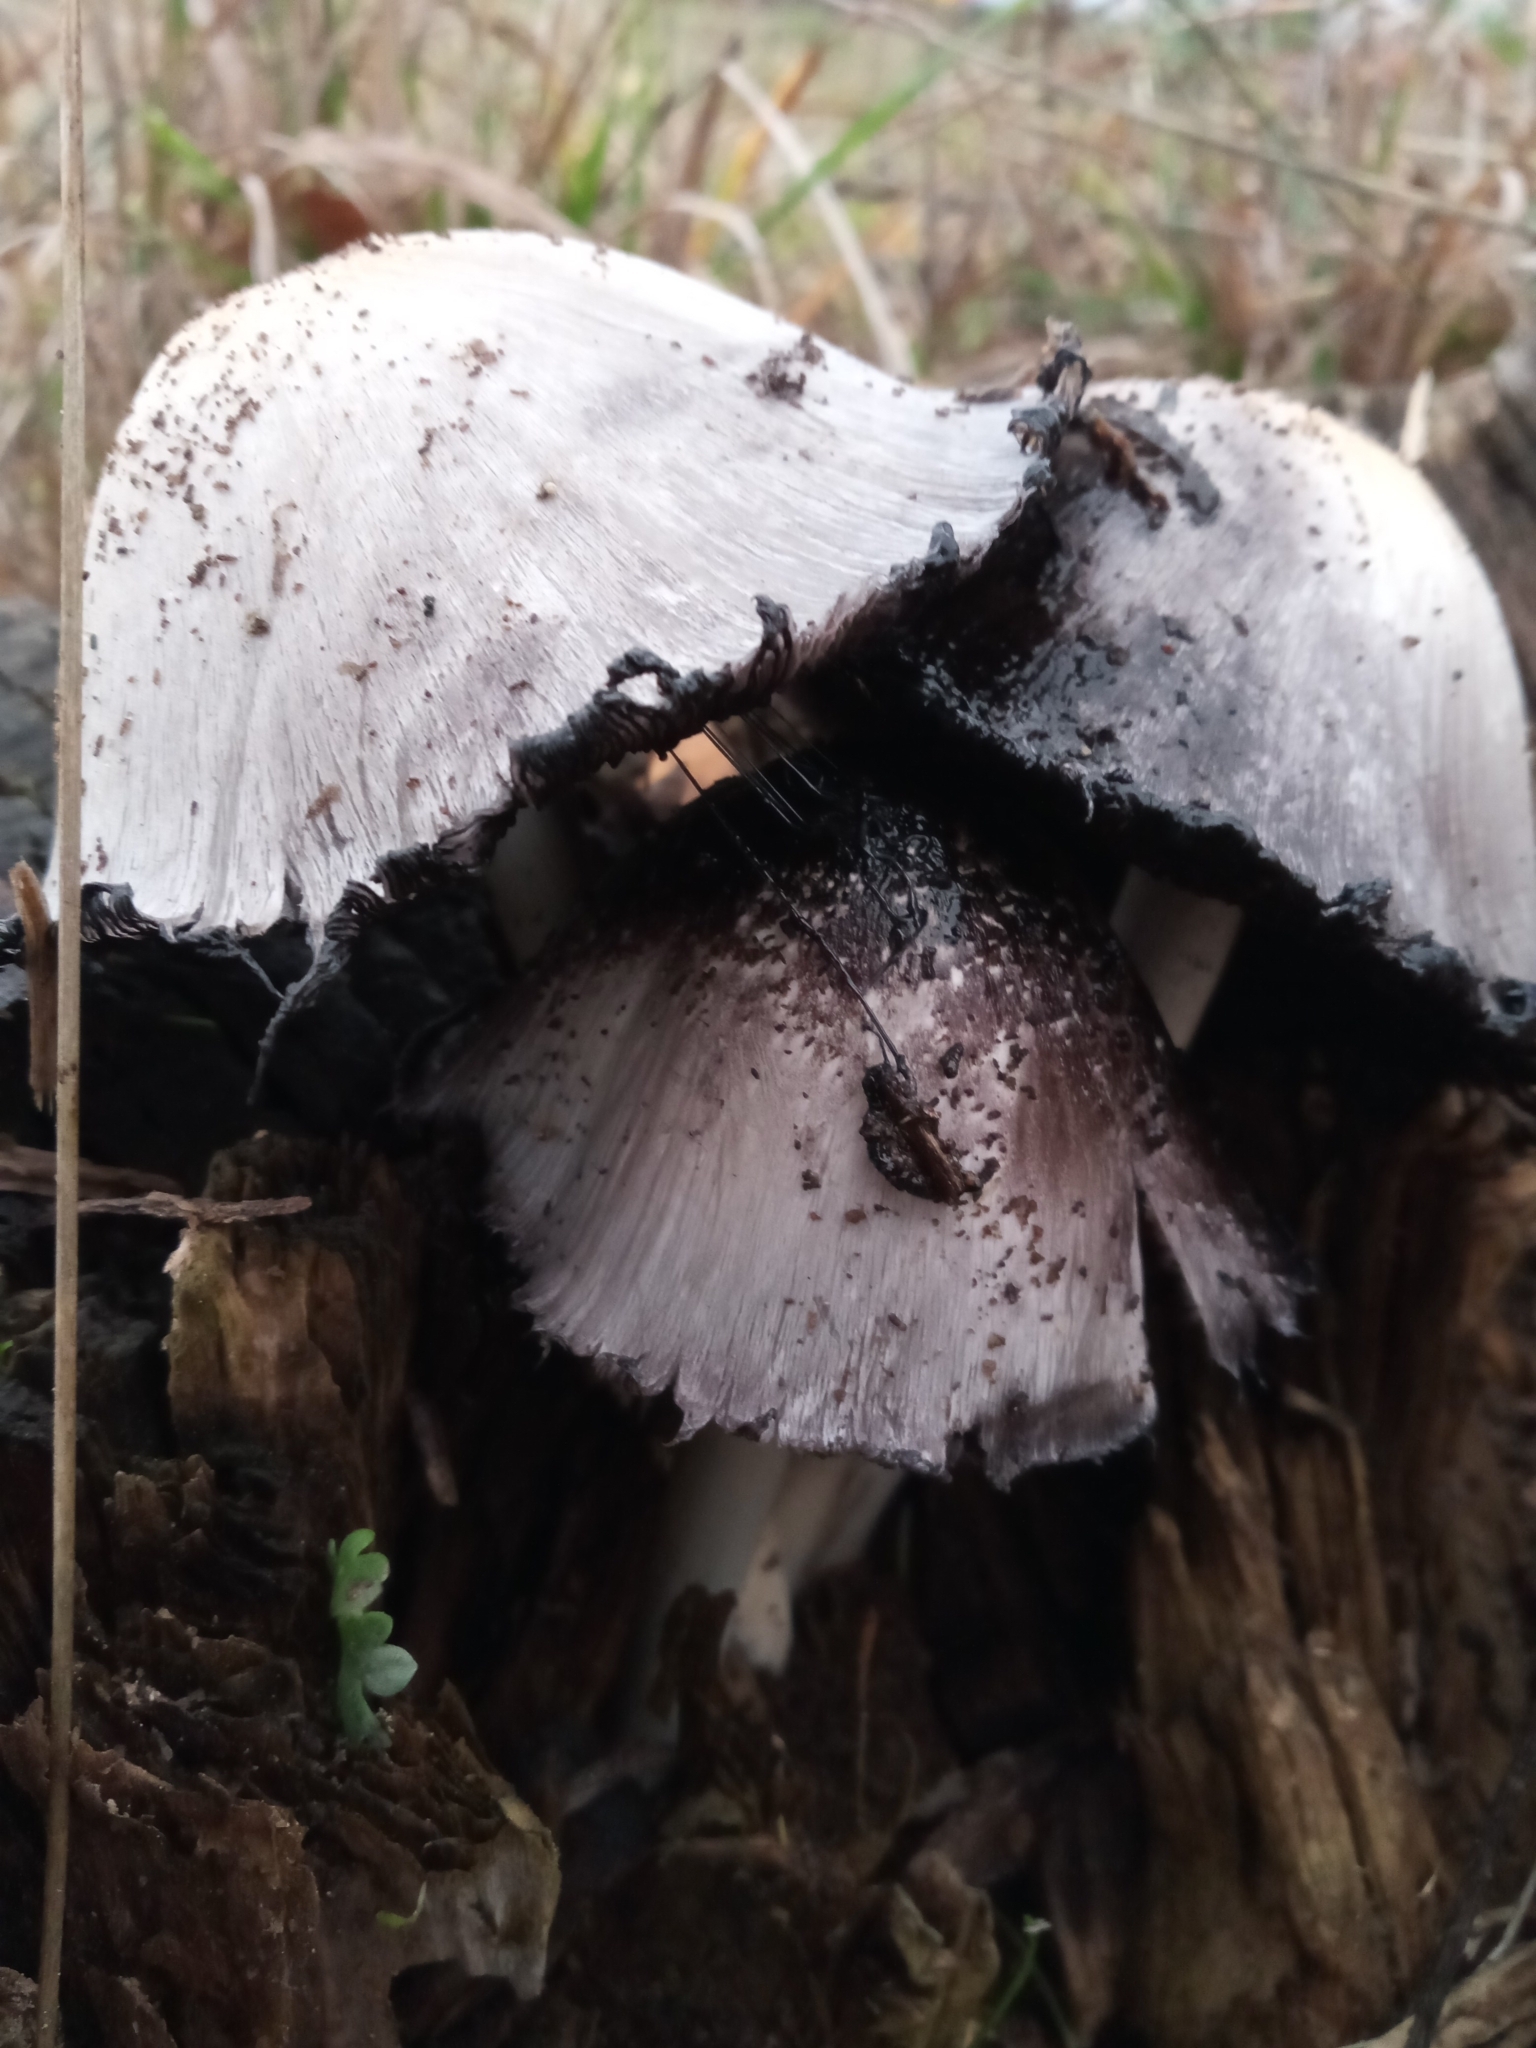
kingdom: Fungi
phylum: Basidiomycota
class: Agaricomycetes
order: Agaricales
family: Psathyrellaceae
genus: Coprinopsis
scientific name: Coprinopsis atramentaria
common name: Common ink-cap
